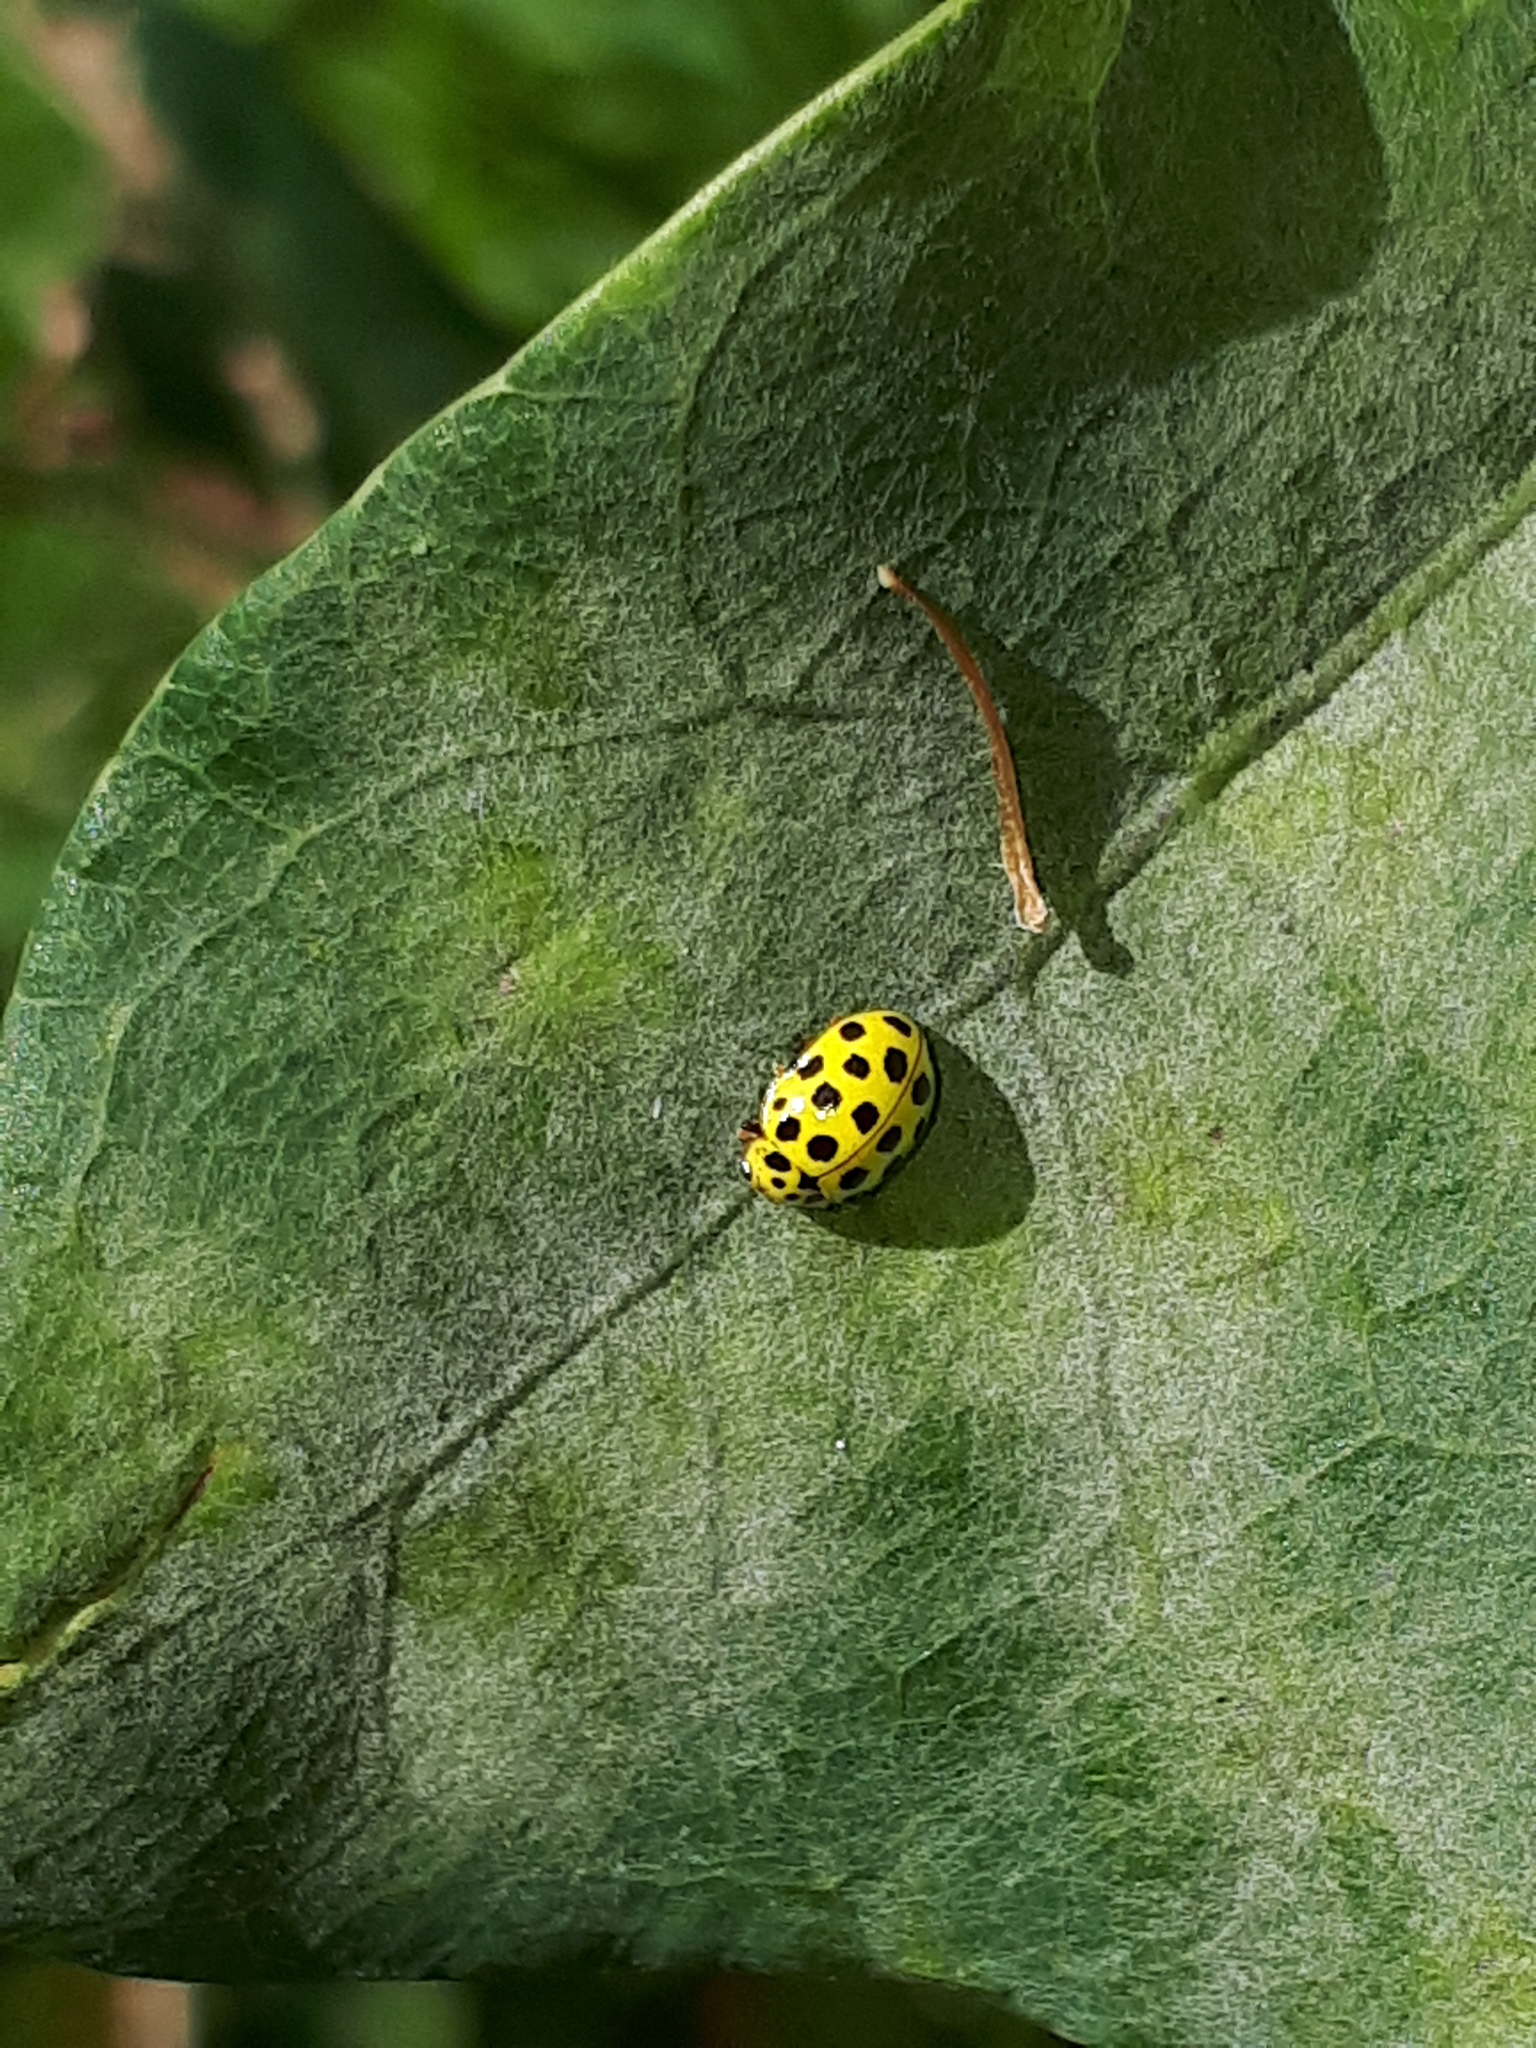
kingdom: Animalia
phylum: Arthropoda
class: Insecta
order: Coleoptera
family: Coccinellidae
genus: Psyllobora
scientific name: Psyllobora vigintiduopunctata
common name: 22-spot ladybird
